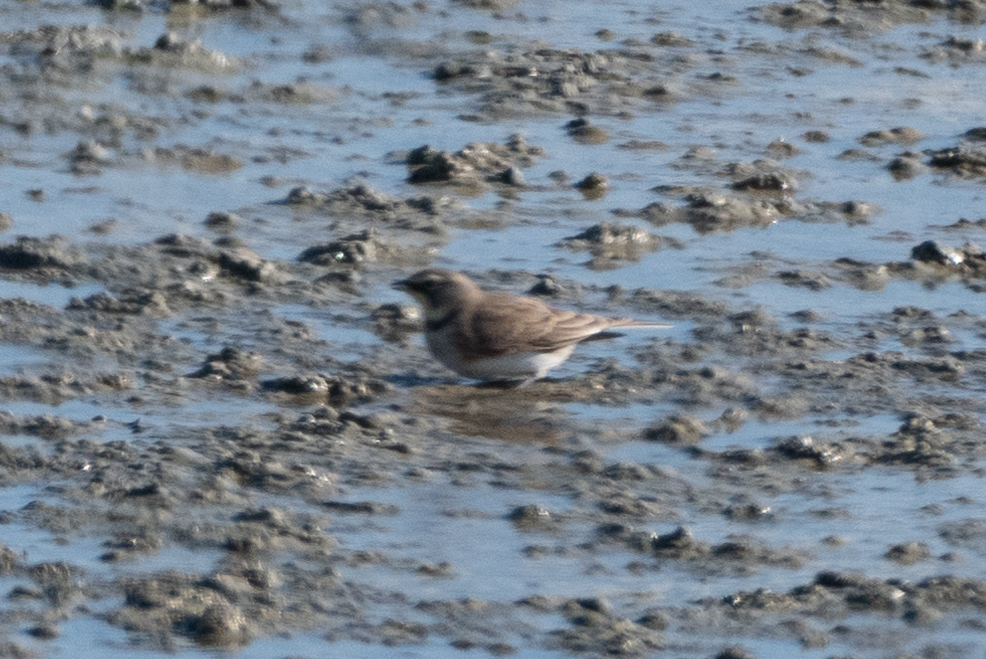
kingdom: Animalia
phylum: Chordata
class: Aves
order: Passeriformes
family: Alaudidae
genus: Eremophila
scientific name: Eremophila alpestris
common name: Horned lark
